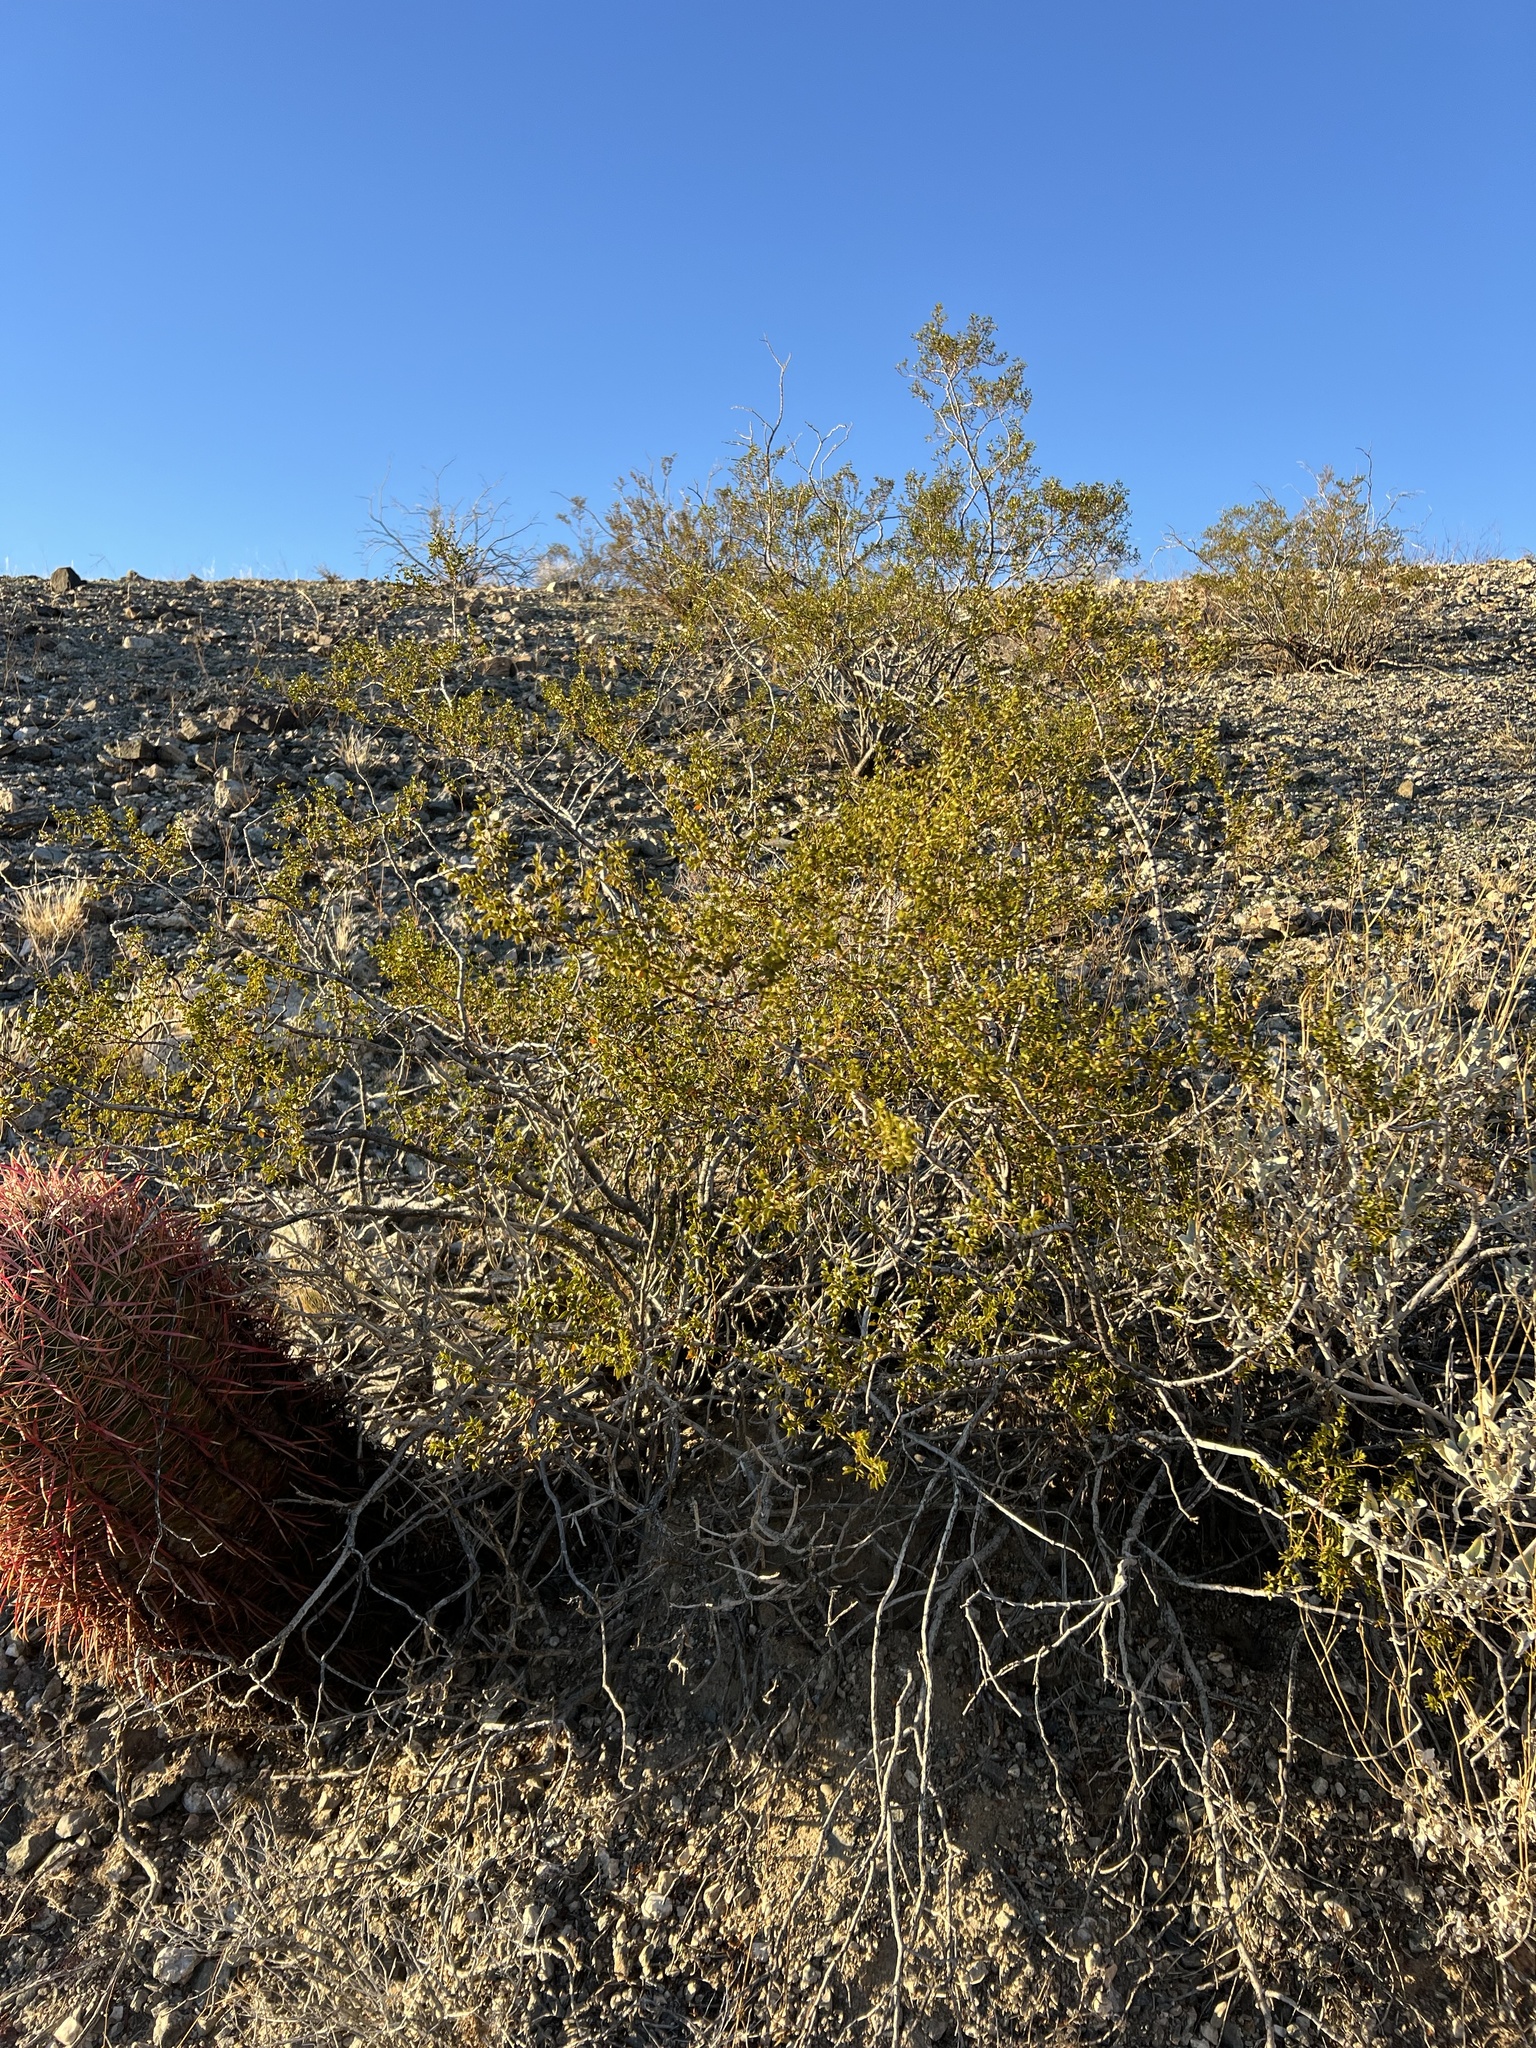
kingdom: Plantae
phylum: Tracheophyta
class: Magnoliopsida
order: Zygophyllales
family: Zygophyllaceae
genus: Larrea
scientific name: Larrea tridentata
